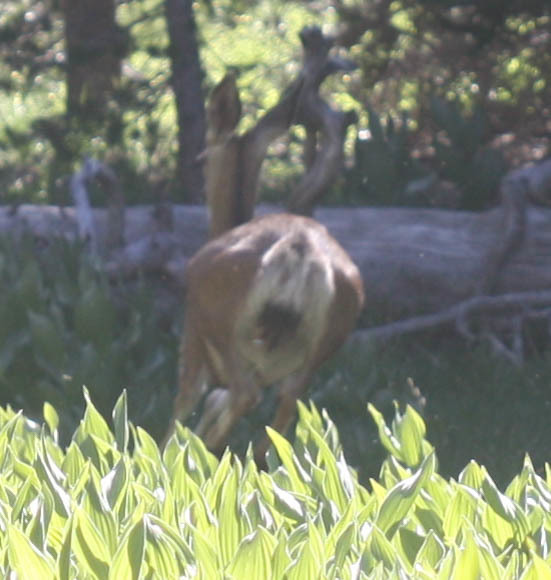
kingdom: Animalia
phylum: Chordata
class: Mammalia
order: Artiodactyla
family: Cervidae
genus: Odocoileus
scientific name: Odocoileus hemionus
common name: Mule deer
